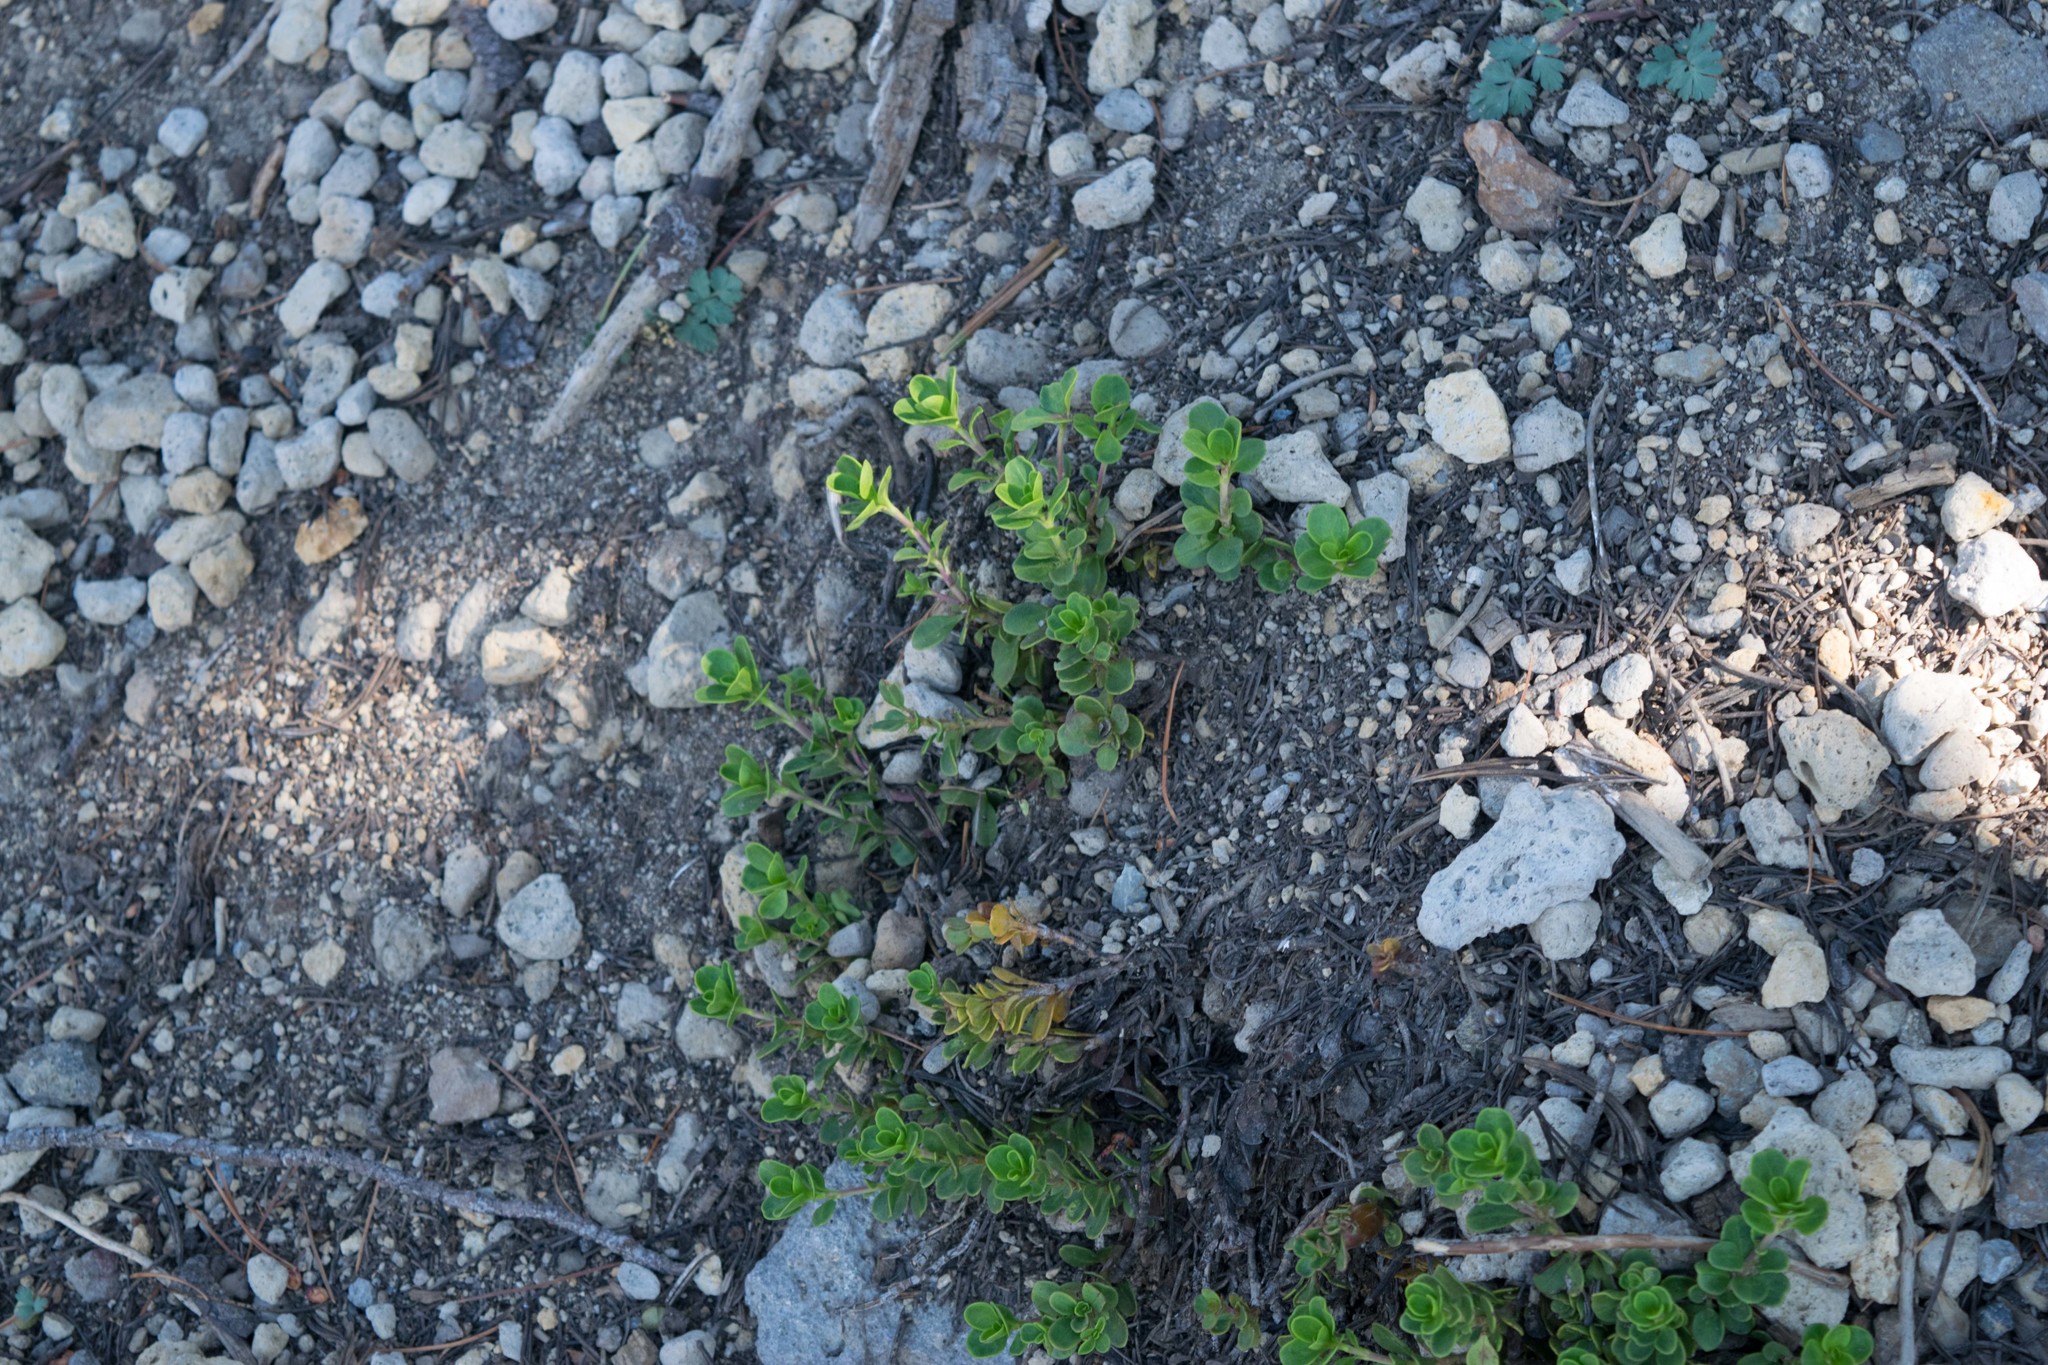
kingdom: Plantae
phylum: Tracheophyta
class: Magnoliopsida
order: Lamiales
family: Plantaginaceae
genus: Penstemon
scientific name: Penstemon davidsonii
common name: Davidson's penstemon
